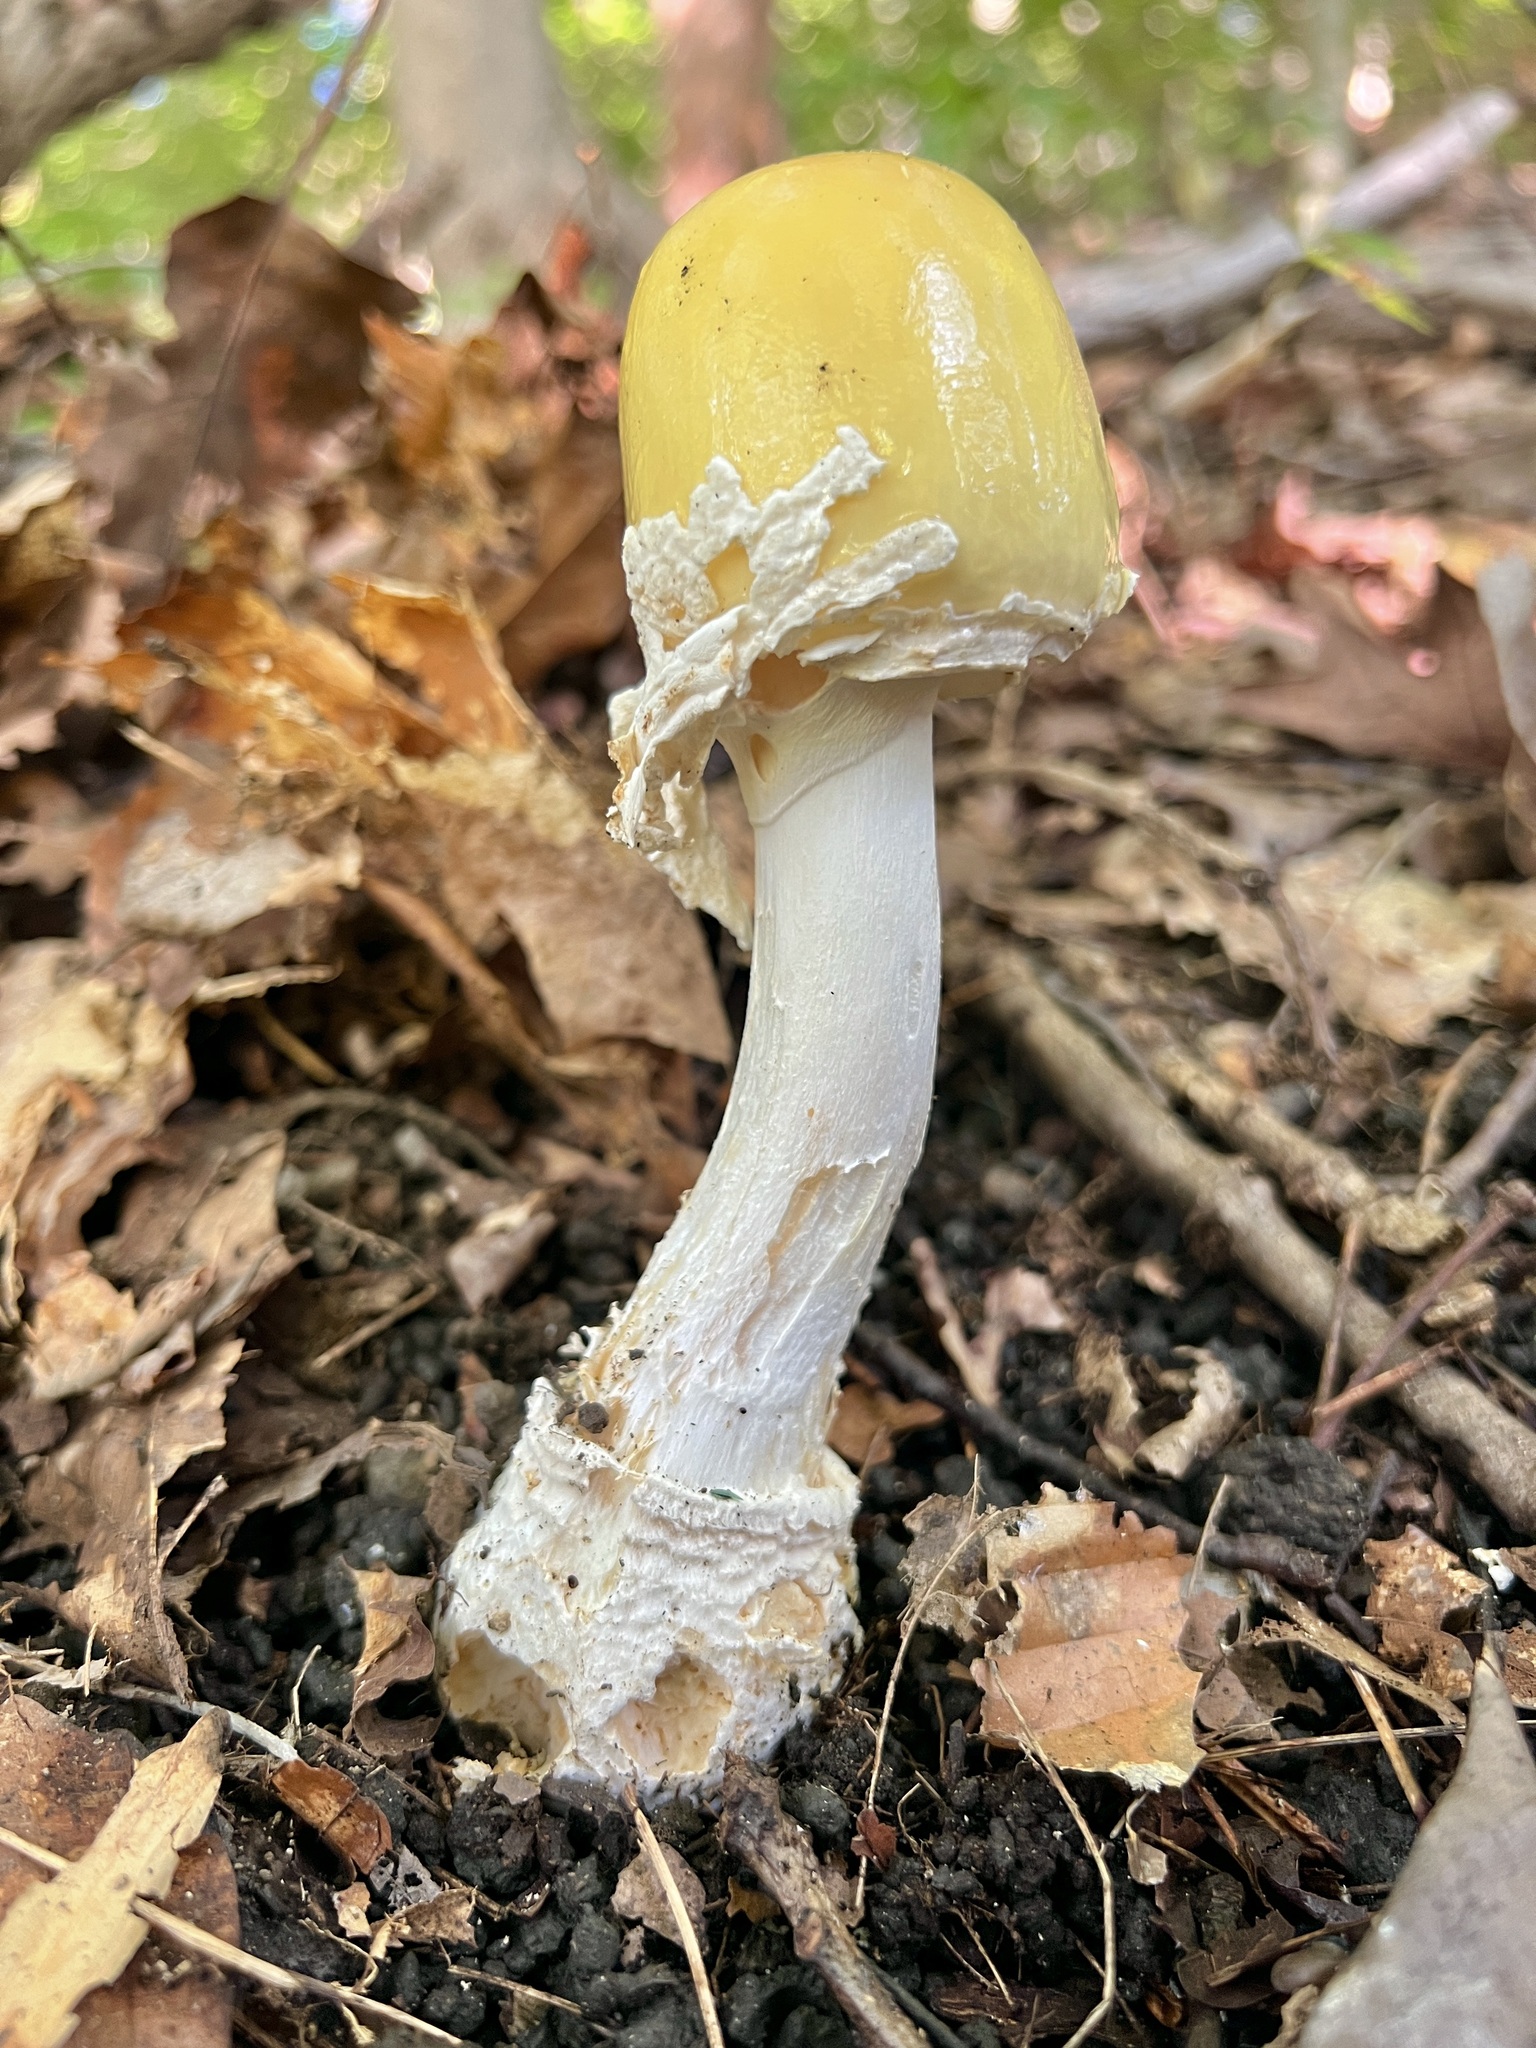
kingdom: Fungi
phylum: Basidiomycota
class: Agaricomycetes
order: Agaricales
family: Amanitaceae
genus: Amanita
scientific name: Amanita velatipes
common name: Great funnel-veil amanita
